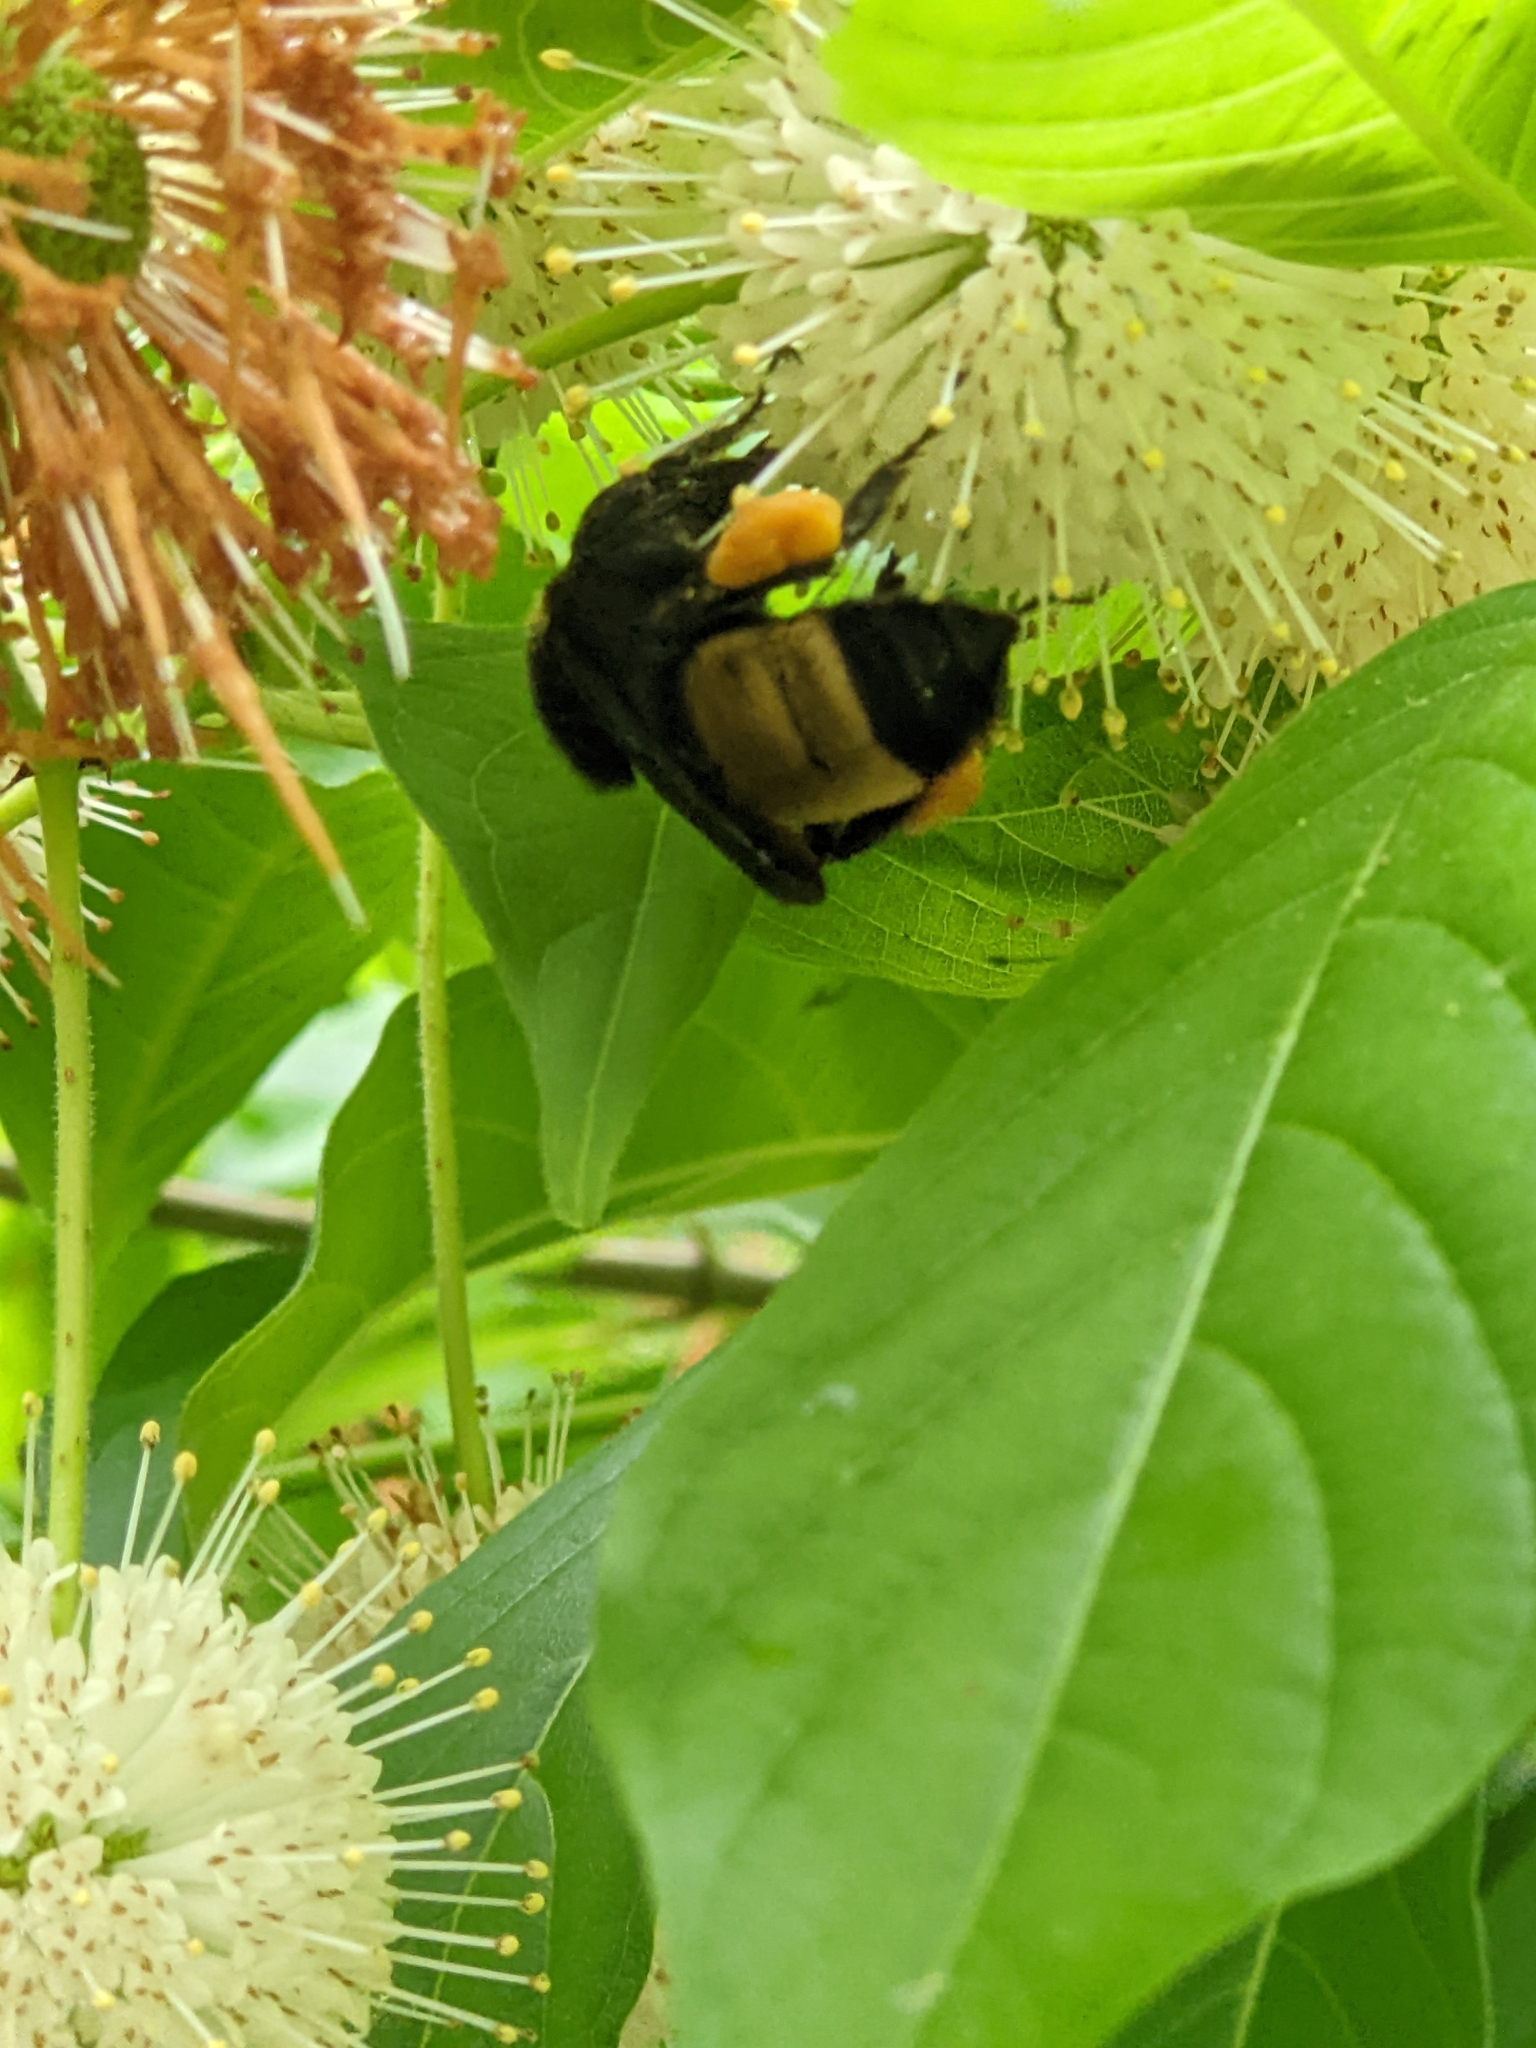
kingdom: Animalia
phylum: Arthropoda
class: Insecta
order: Hymenoptera
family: Apidae
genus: Bombus
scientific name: Bombus pensylvanicus
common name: Bumble bee
